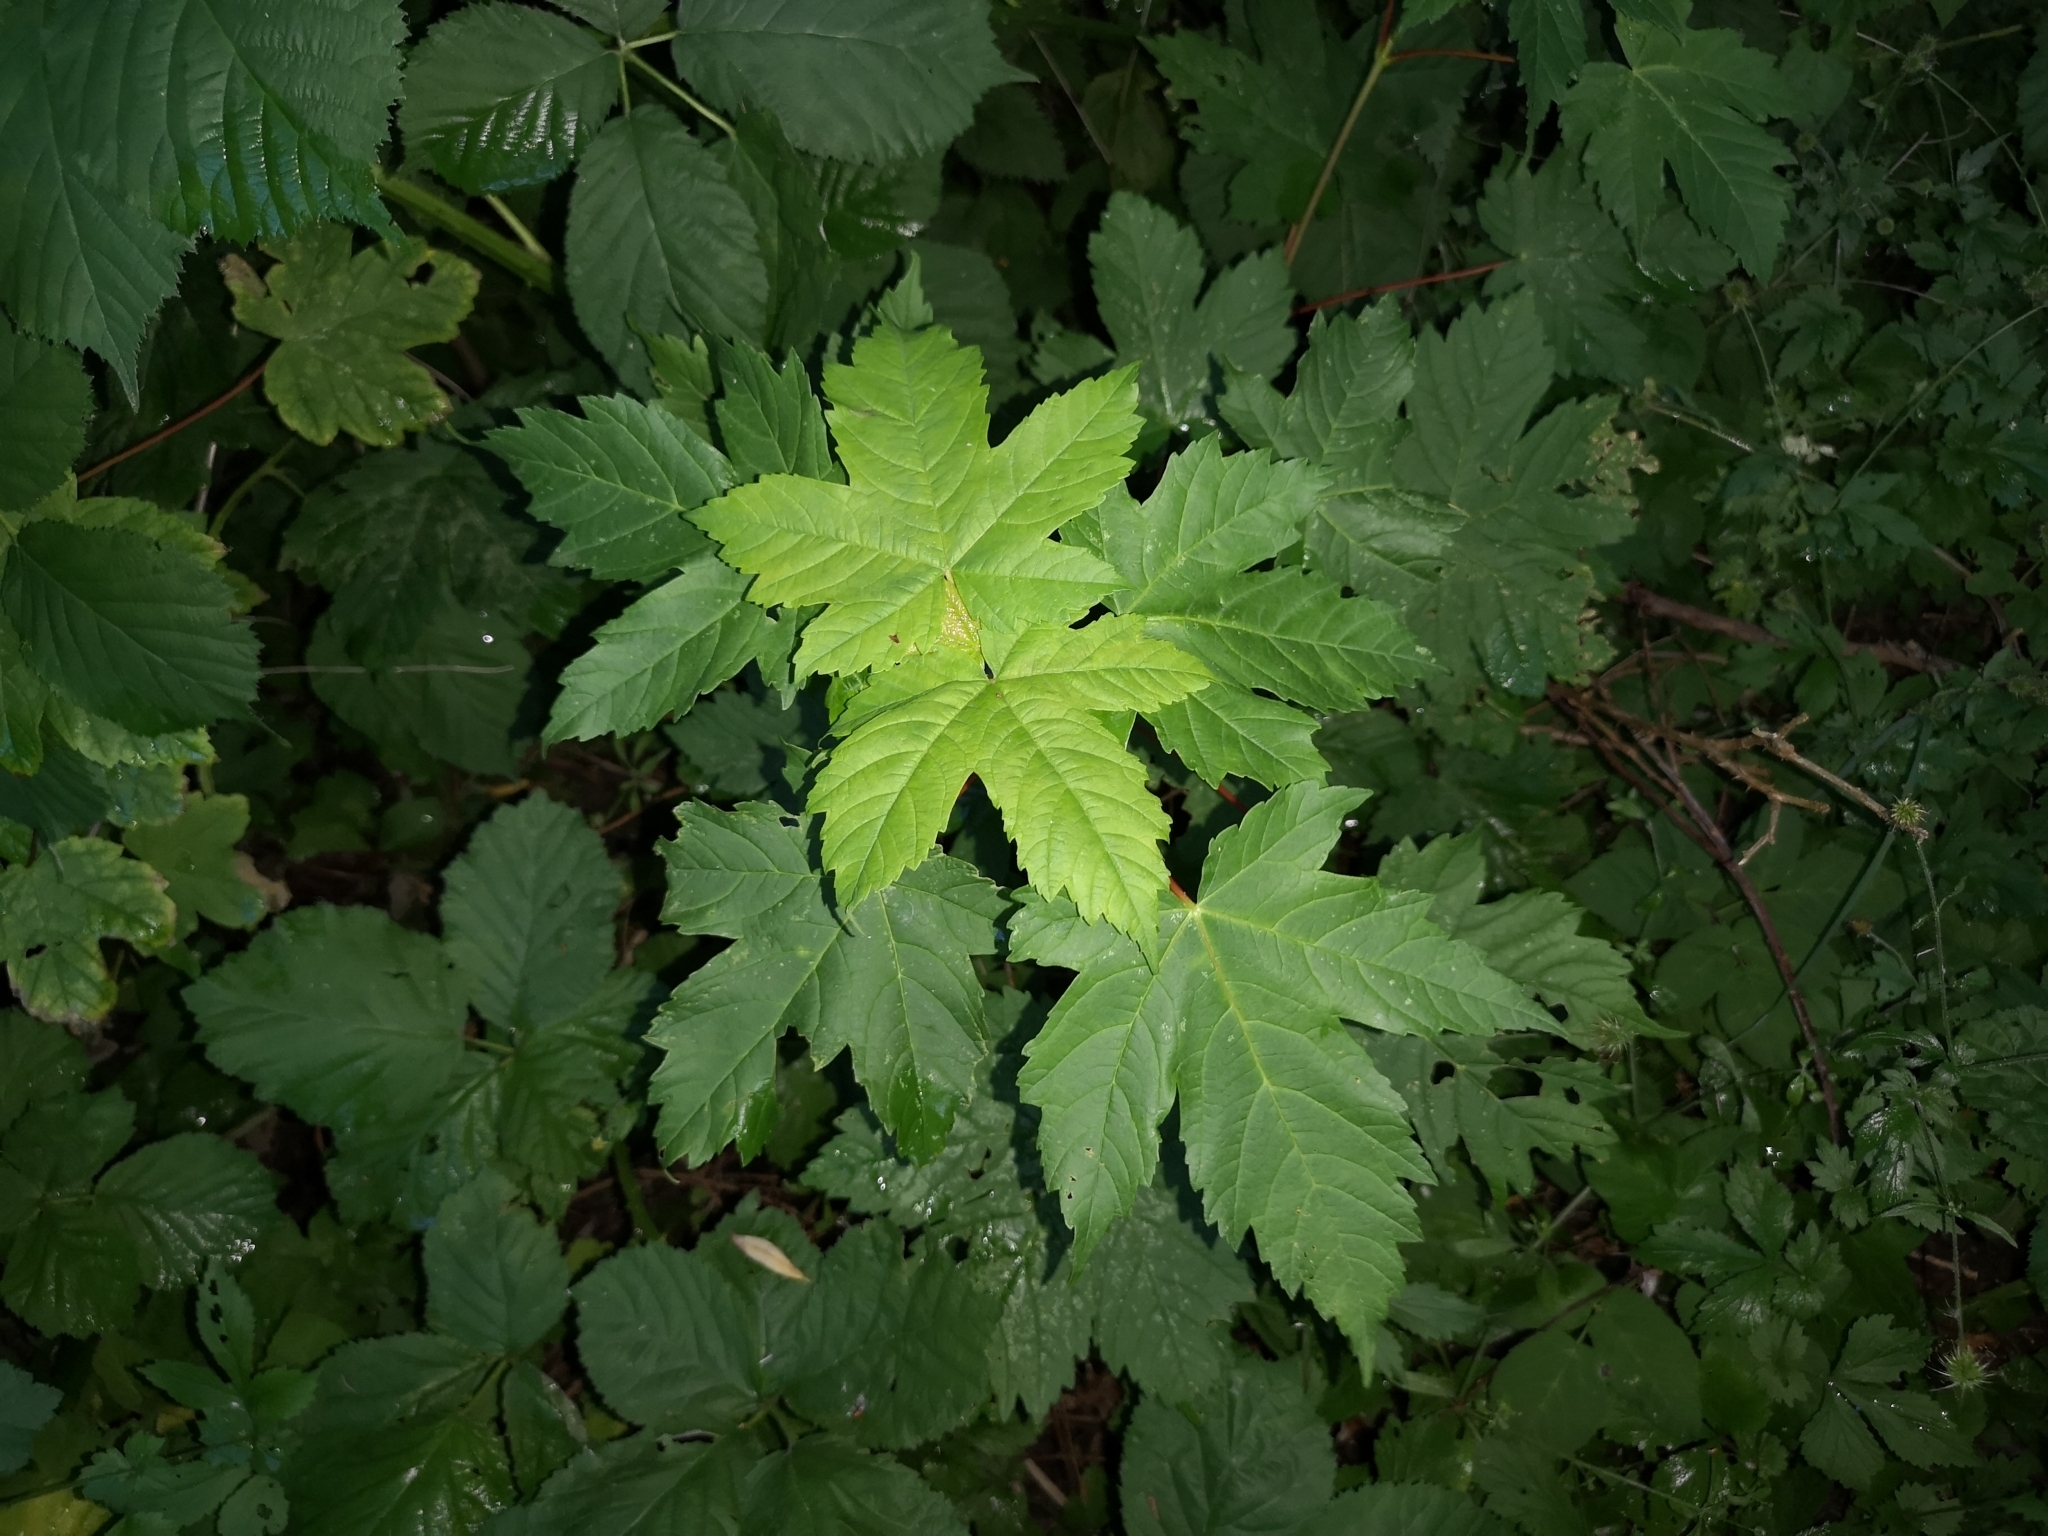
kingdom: Plantae
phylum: Tracheophyta
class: Magnoliopsida
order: Sapindales
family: Sapindaceae
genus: Acer
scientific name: Acer pseudoplatanus
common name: Sycamore
